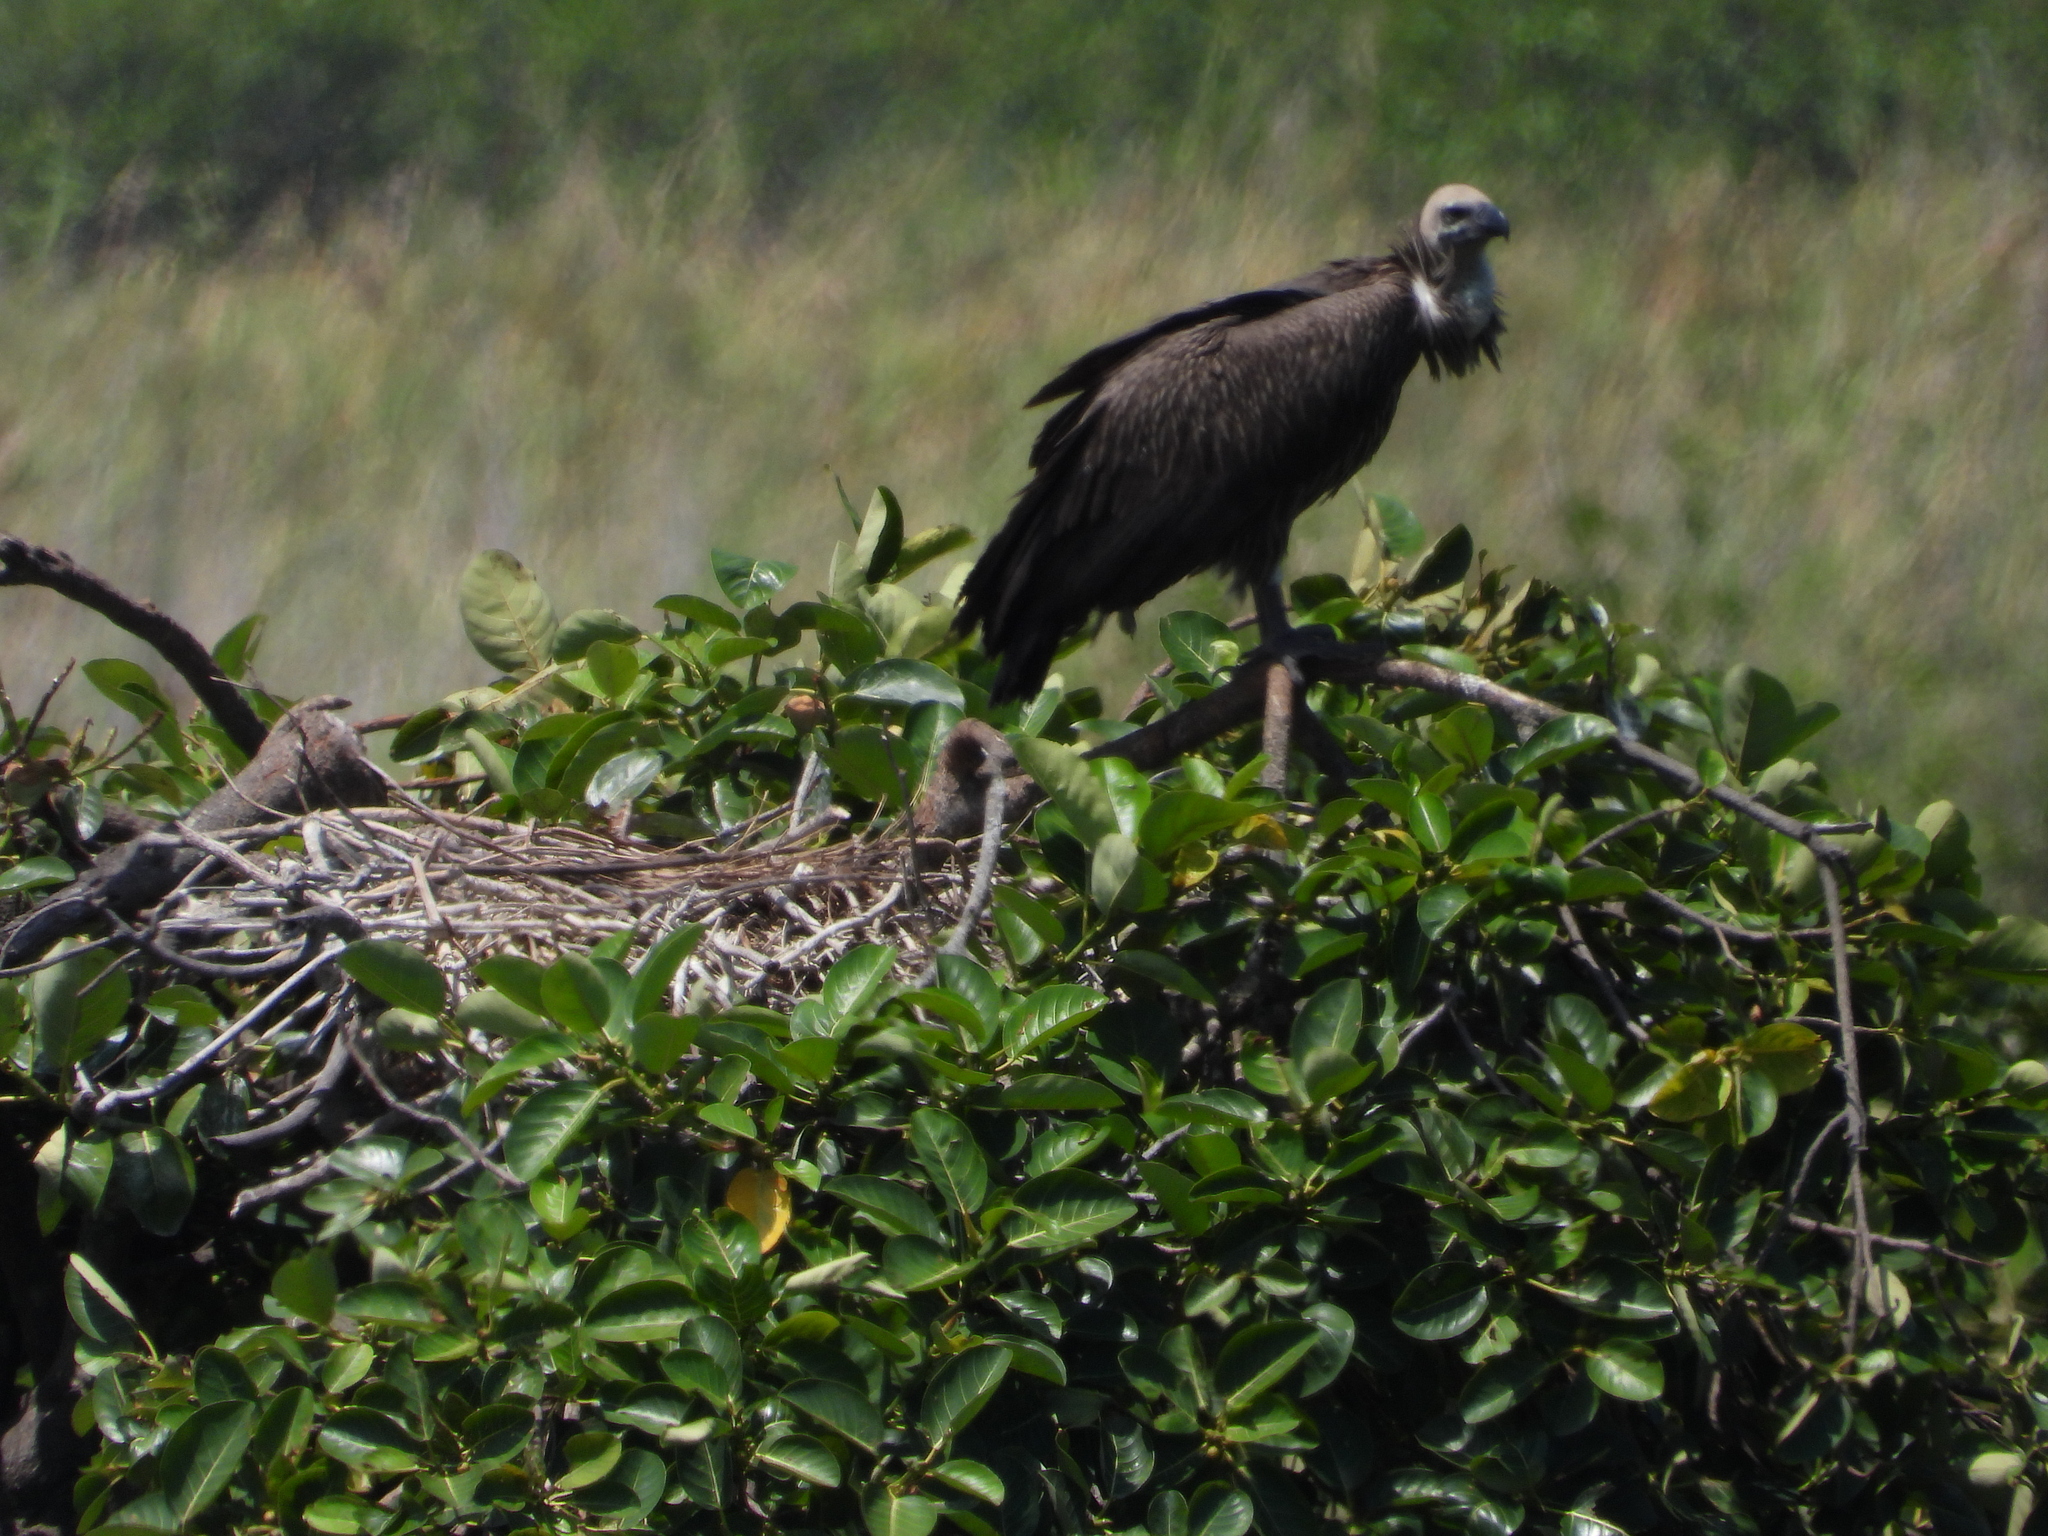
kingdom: Animalia
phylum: Chordata
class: Aves
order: Accipitriformes
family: Accipitridae
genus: Gyps
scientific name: Gyps africanus
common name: White-backed vulture
